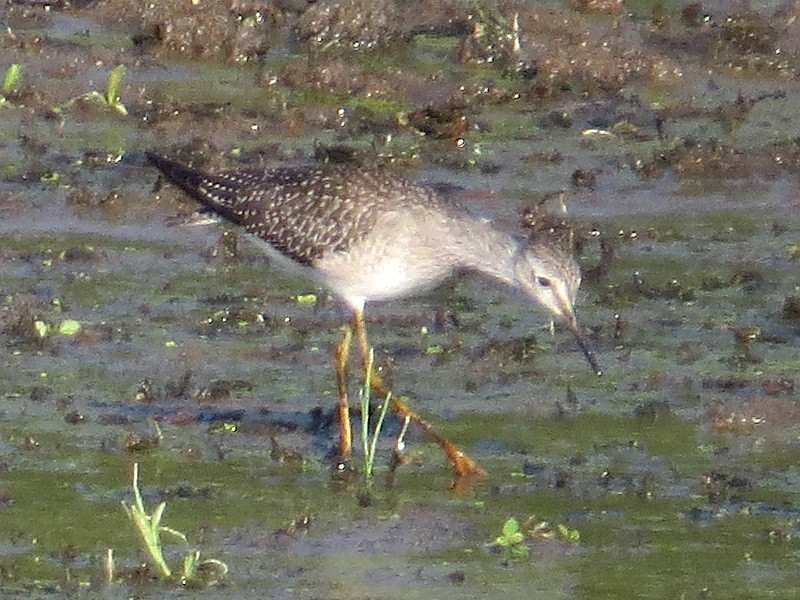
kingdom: Animalia
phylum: Chordata
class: Aves
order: Charadriiformes
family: Scolopacidae
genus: Tringa
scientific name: Tringa flavipes
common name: Lesser yellowlegs
